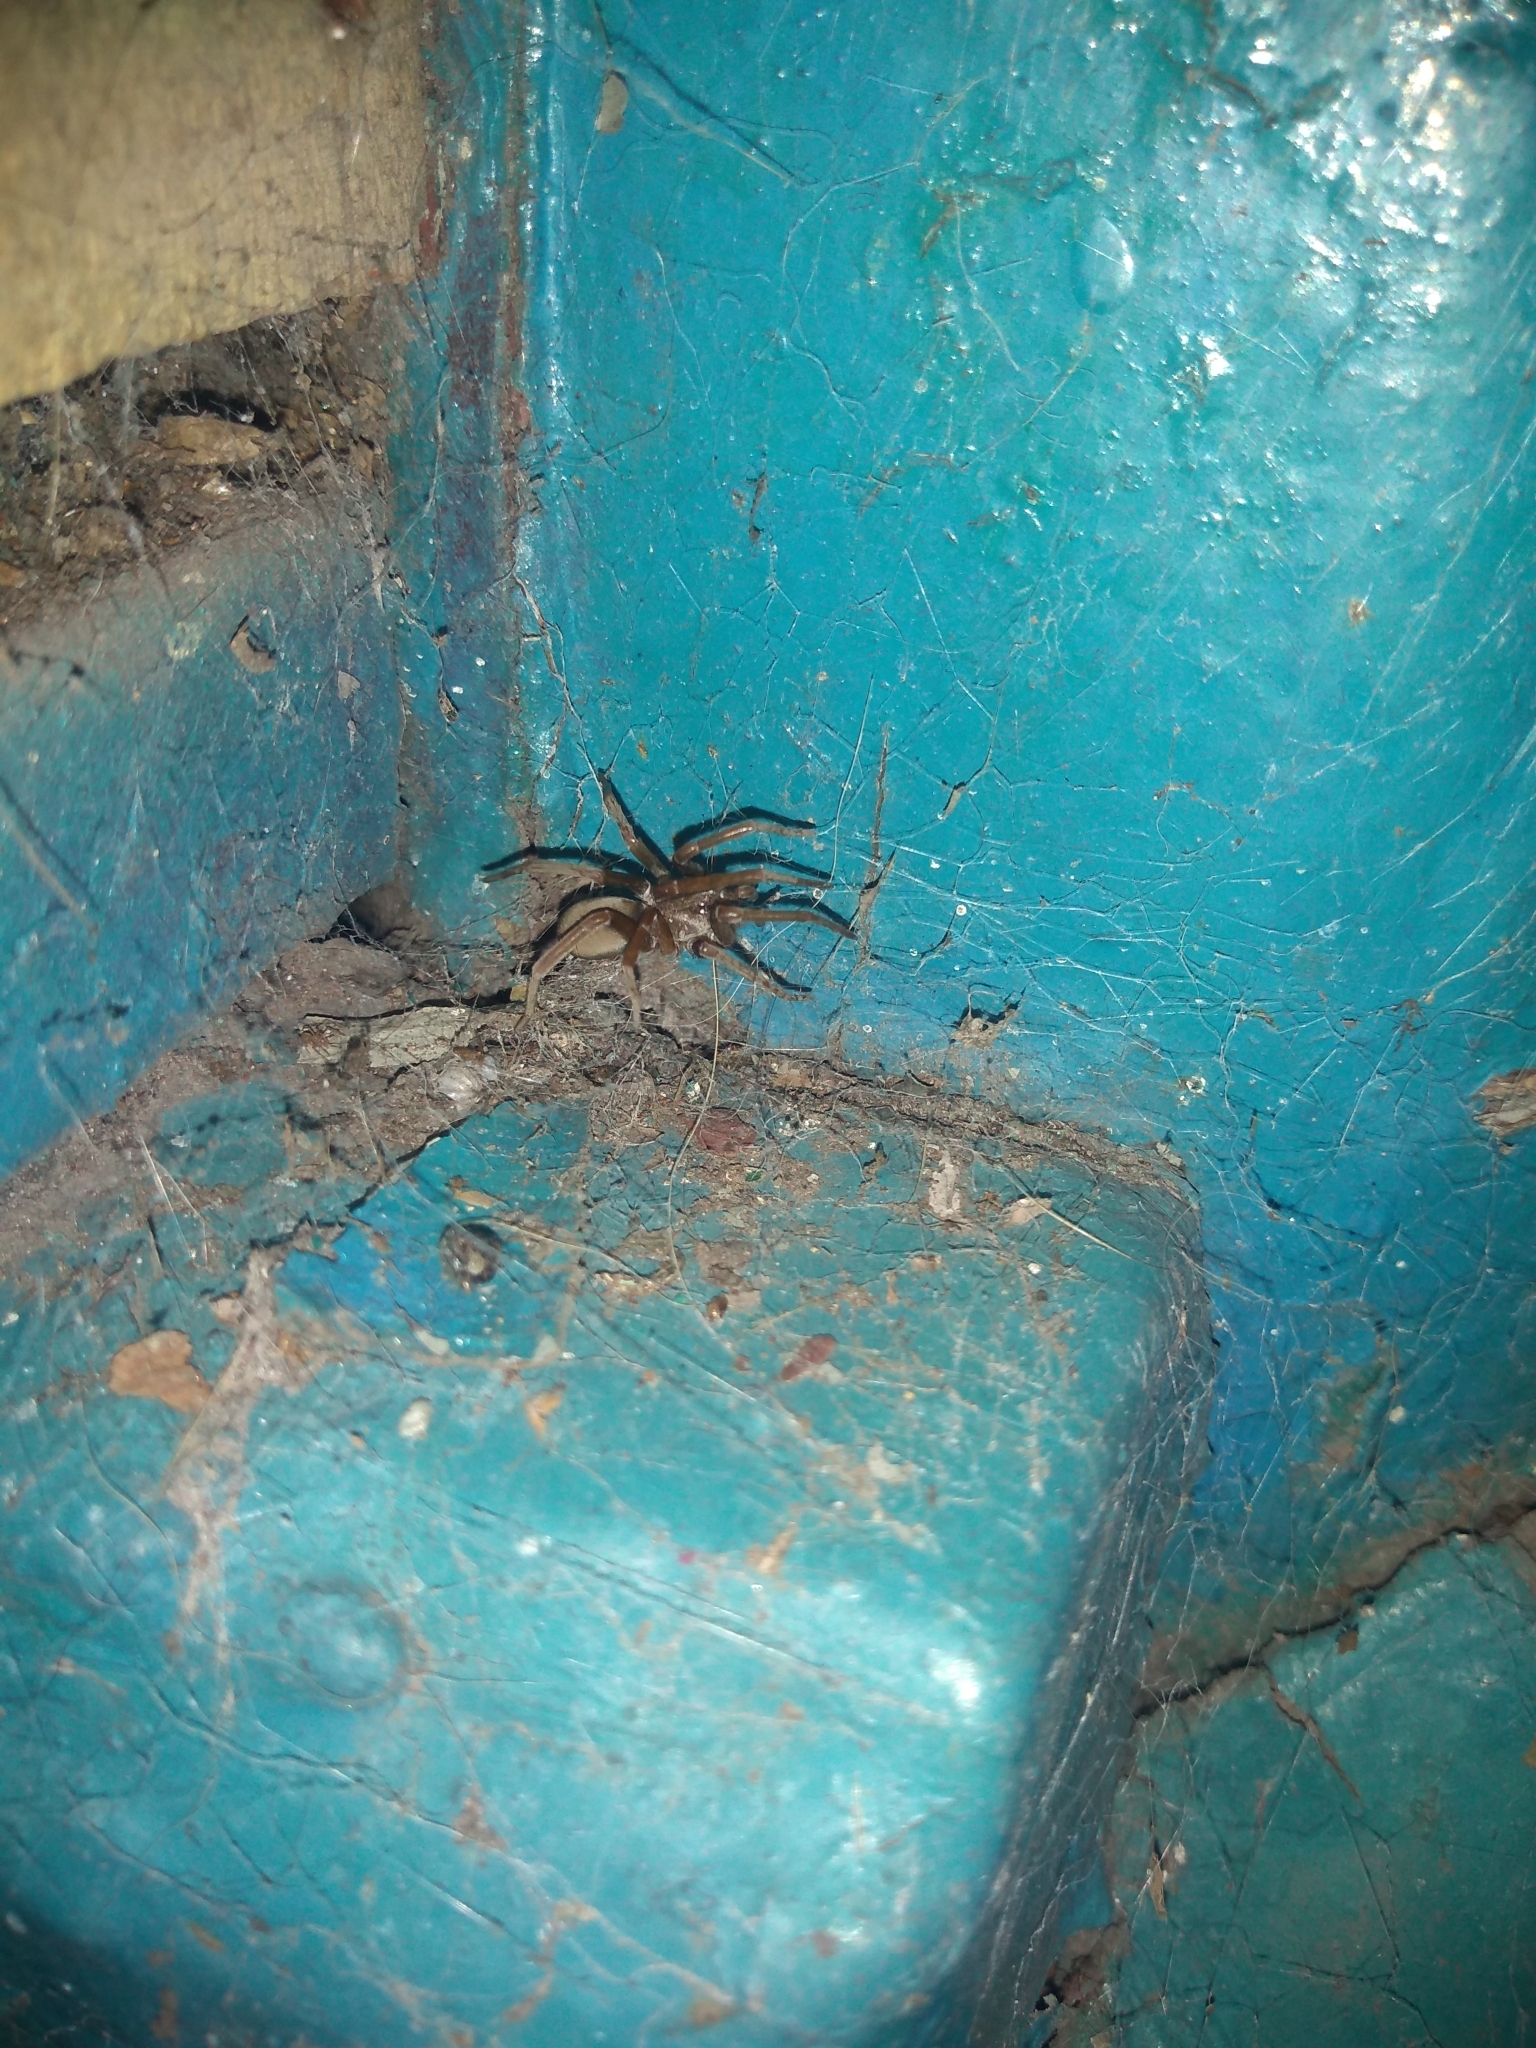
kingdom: Animalia
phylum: Arthropoda
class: Arachnida
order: Araneae
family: Filistatidae
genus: Kukulcania
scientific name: Kukulcania hibernalis
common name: Crevice weaver
